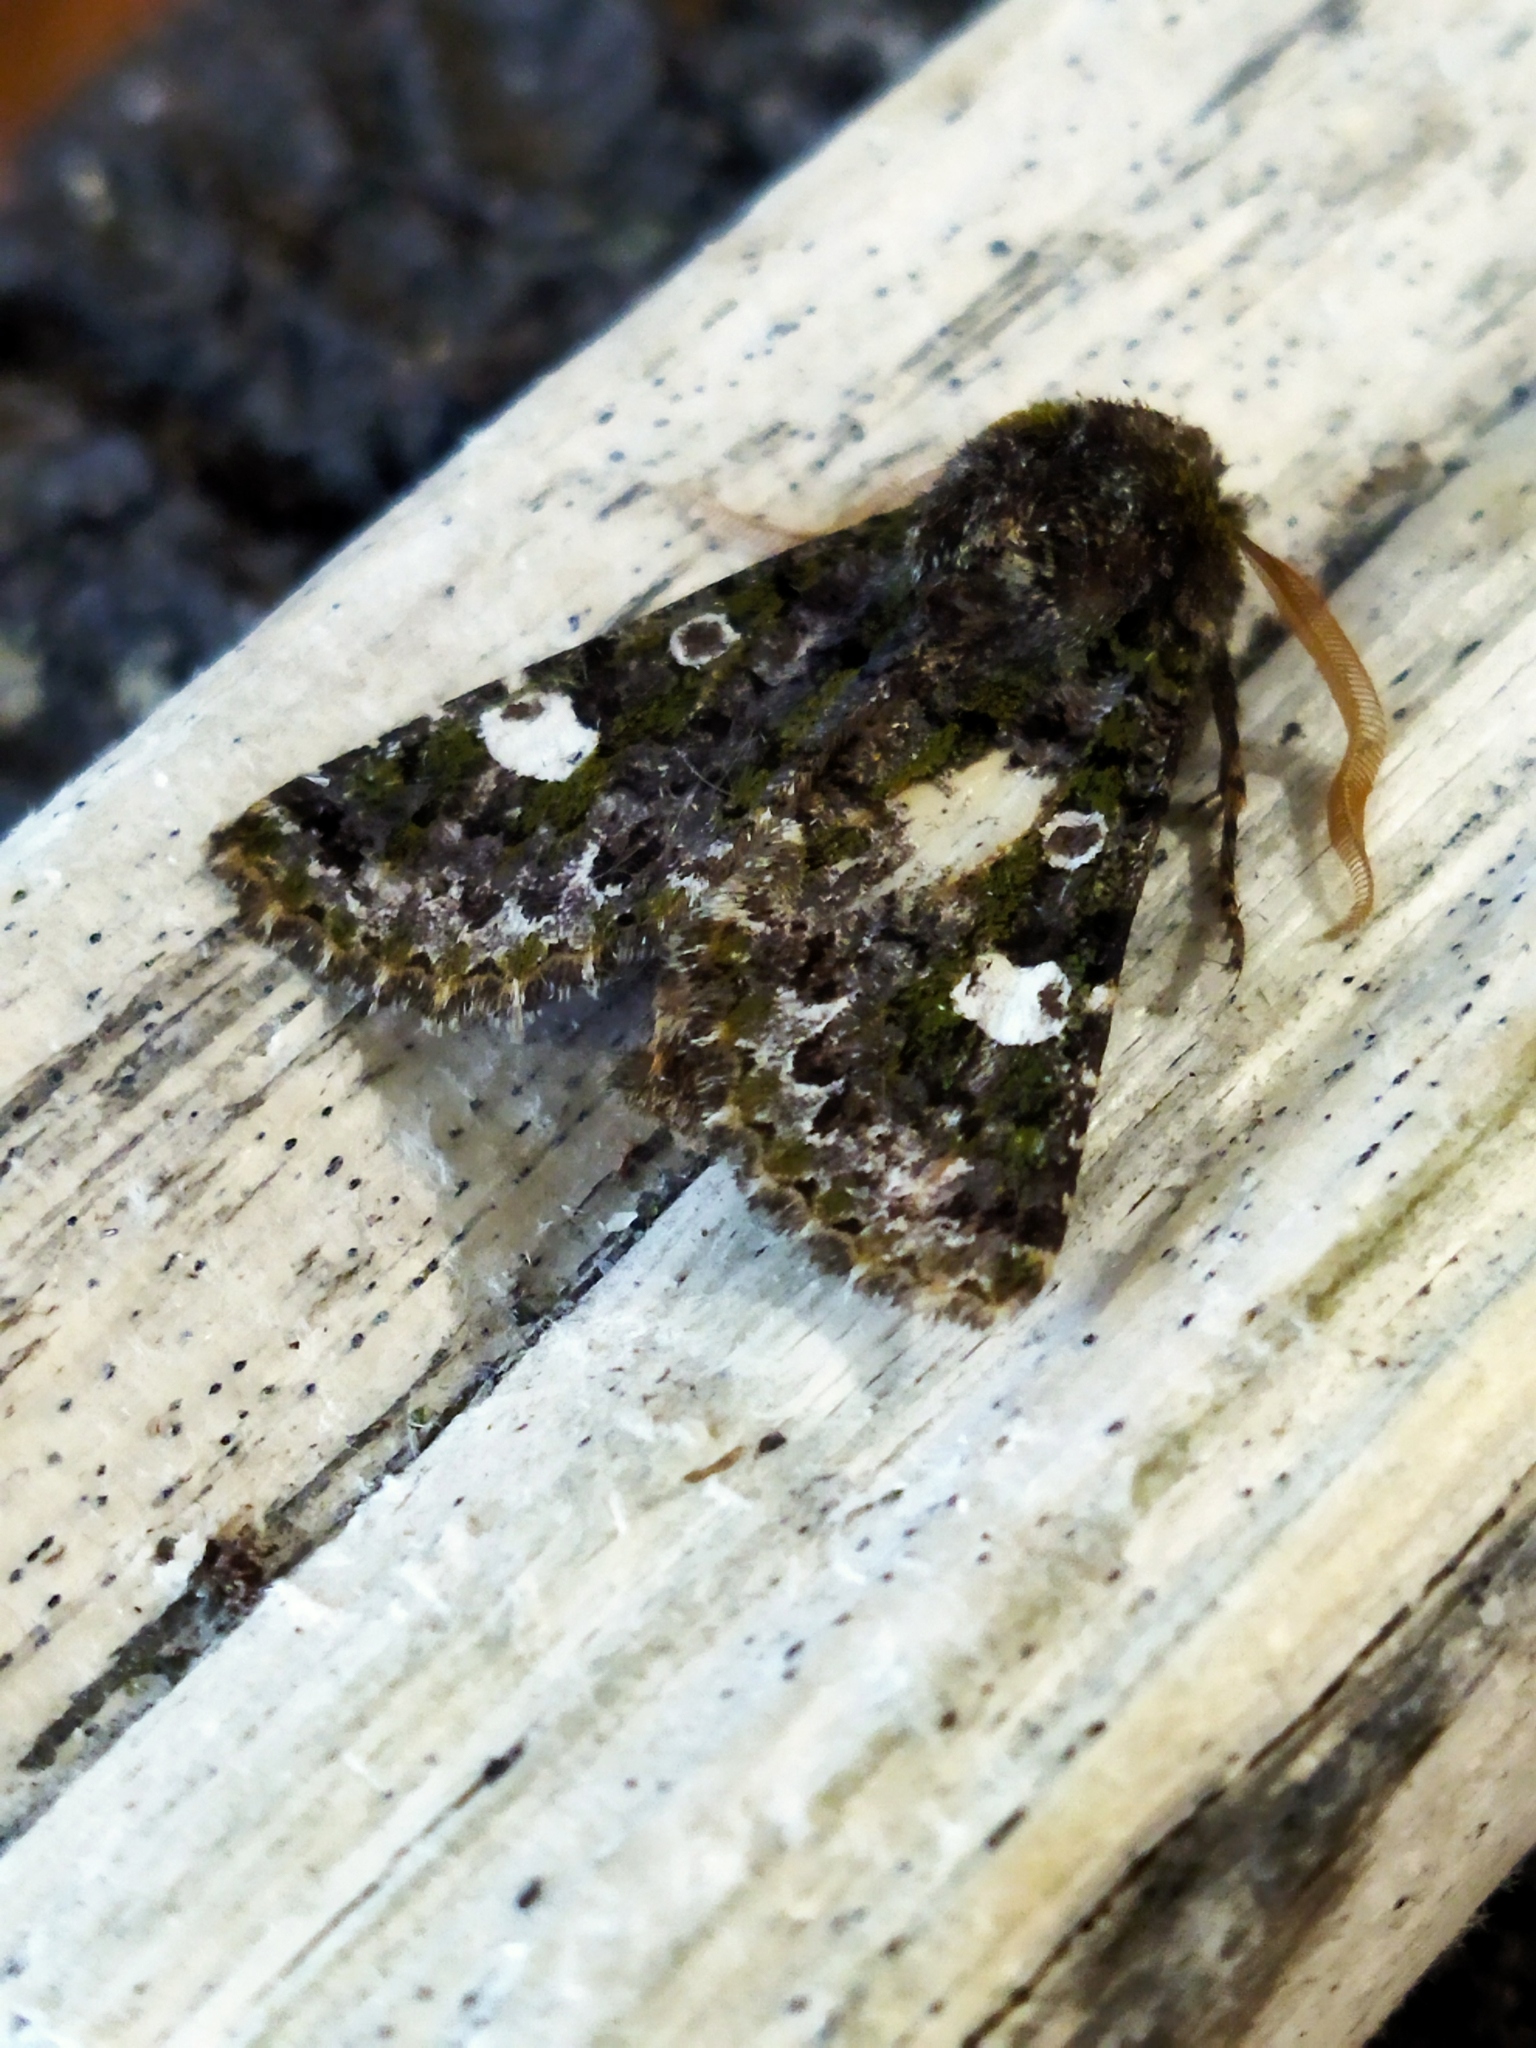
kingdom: Animalia
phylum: Arthropoda
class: Insecta
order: Lepidoptera
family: Noctuidae
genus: Valeria
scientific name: Valeria oleagina
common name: Green-brindled dot
